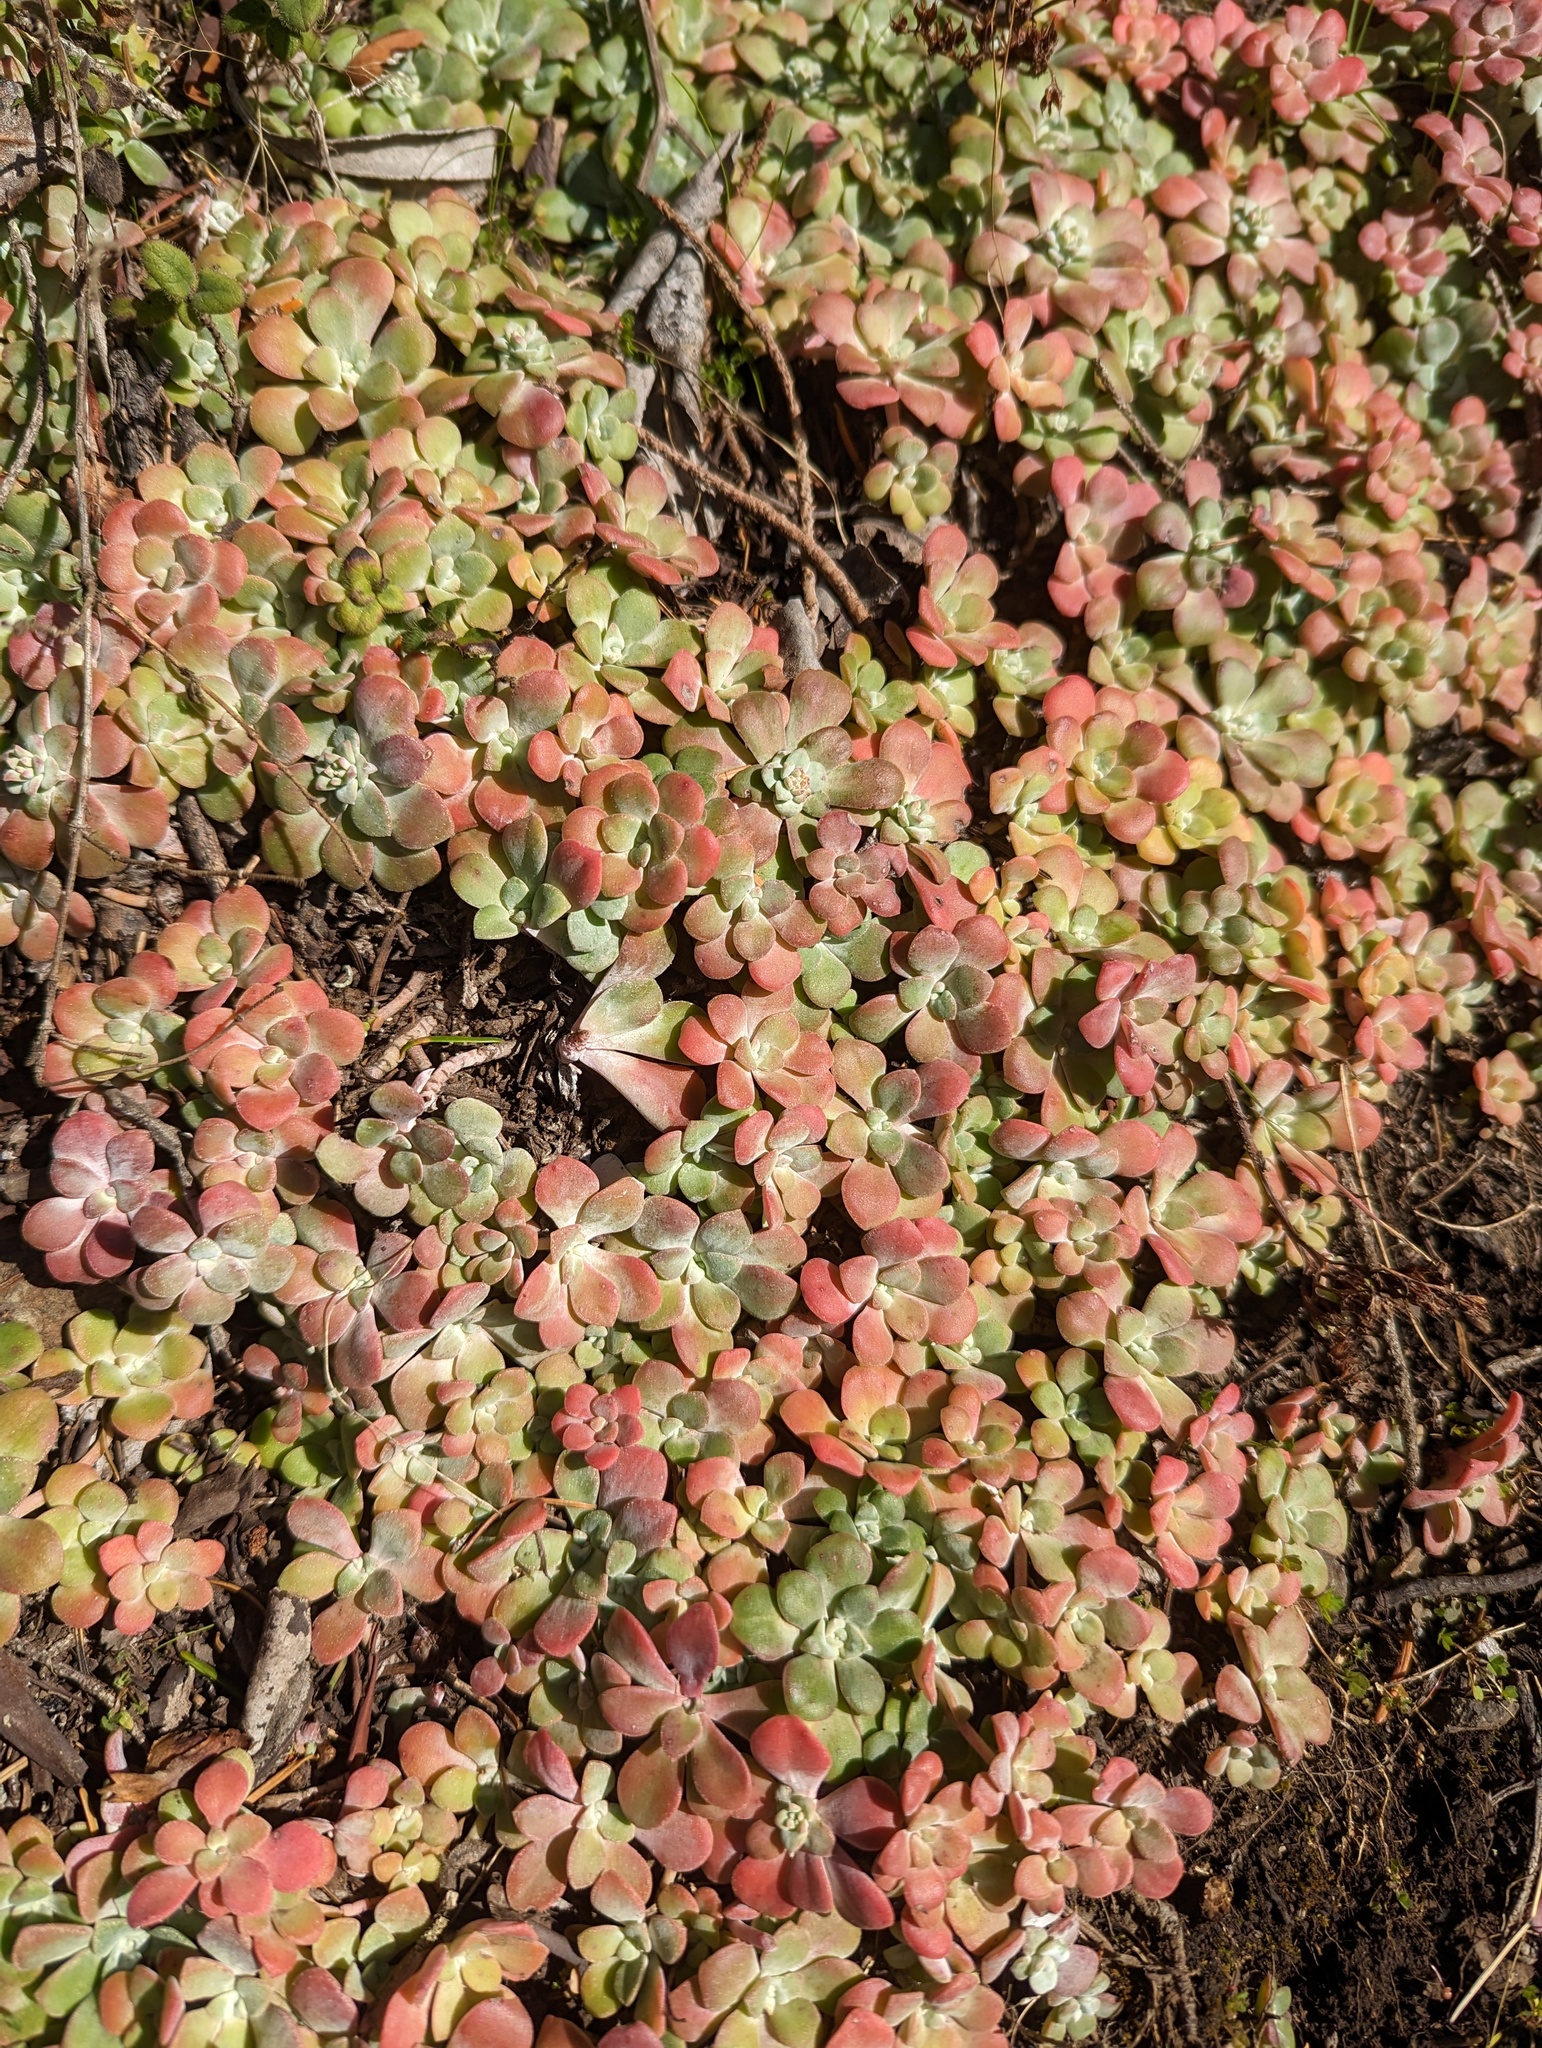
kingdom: Plantae
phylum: Tracheophyta
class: Magnoliopsida
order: Saxifragales
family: Crassulaceae
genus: Sedum
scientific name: Sedum spathulifolium
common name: Colorado stonecrop
